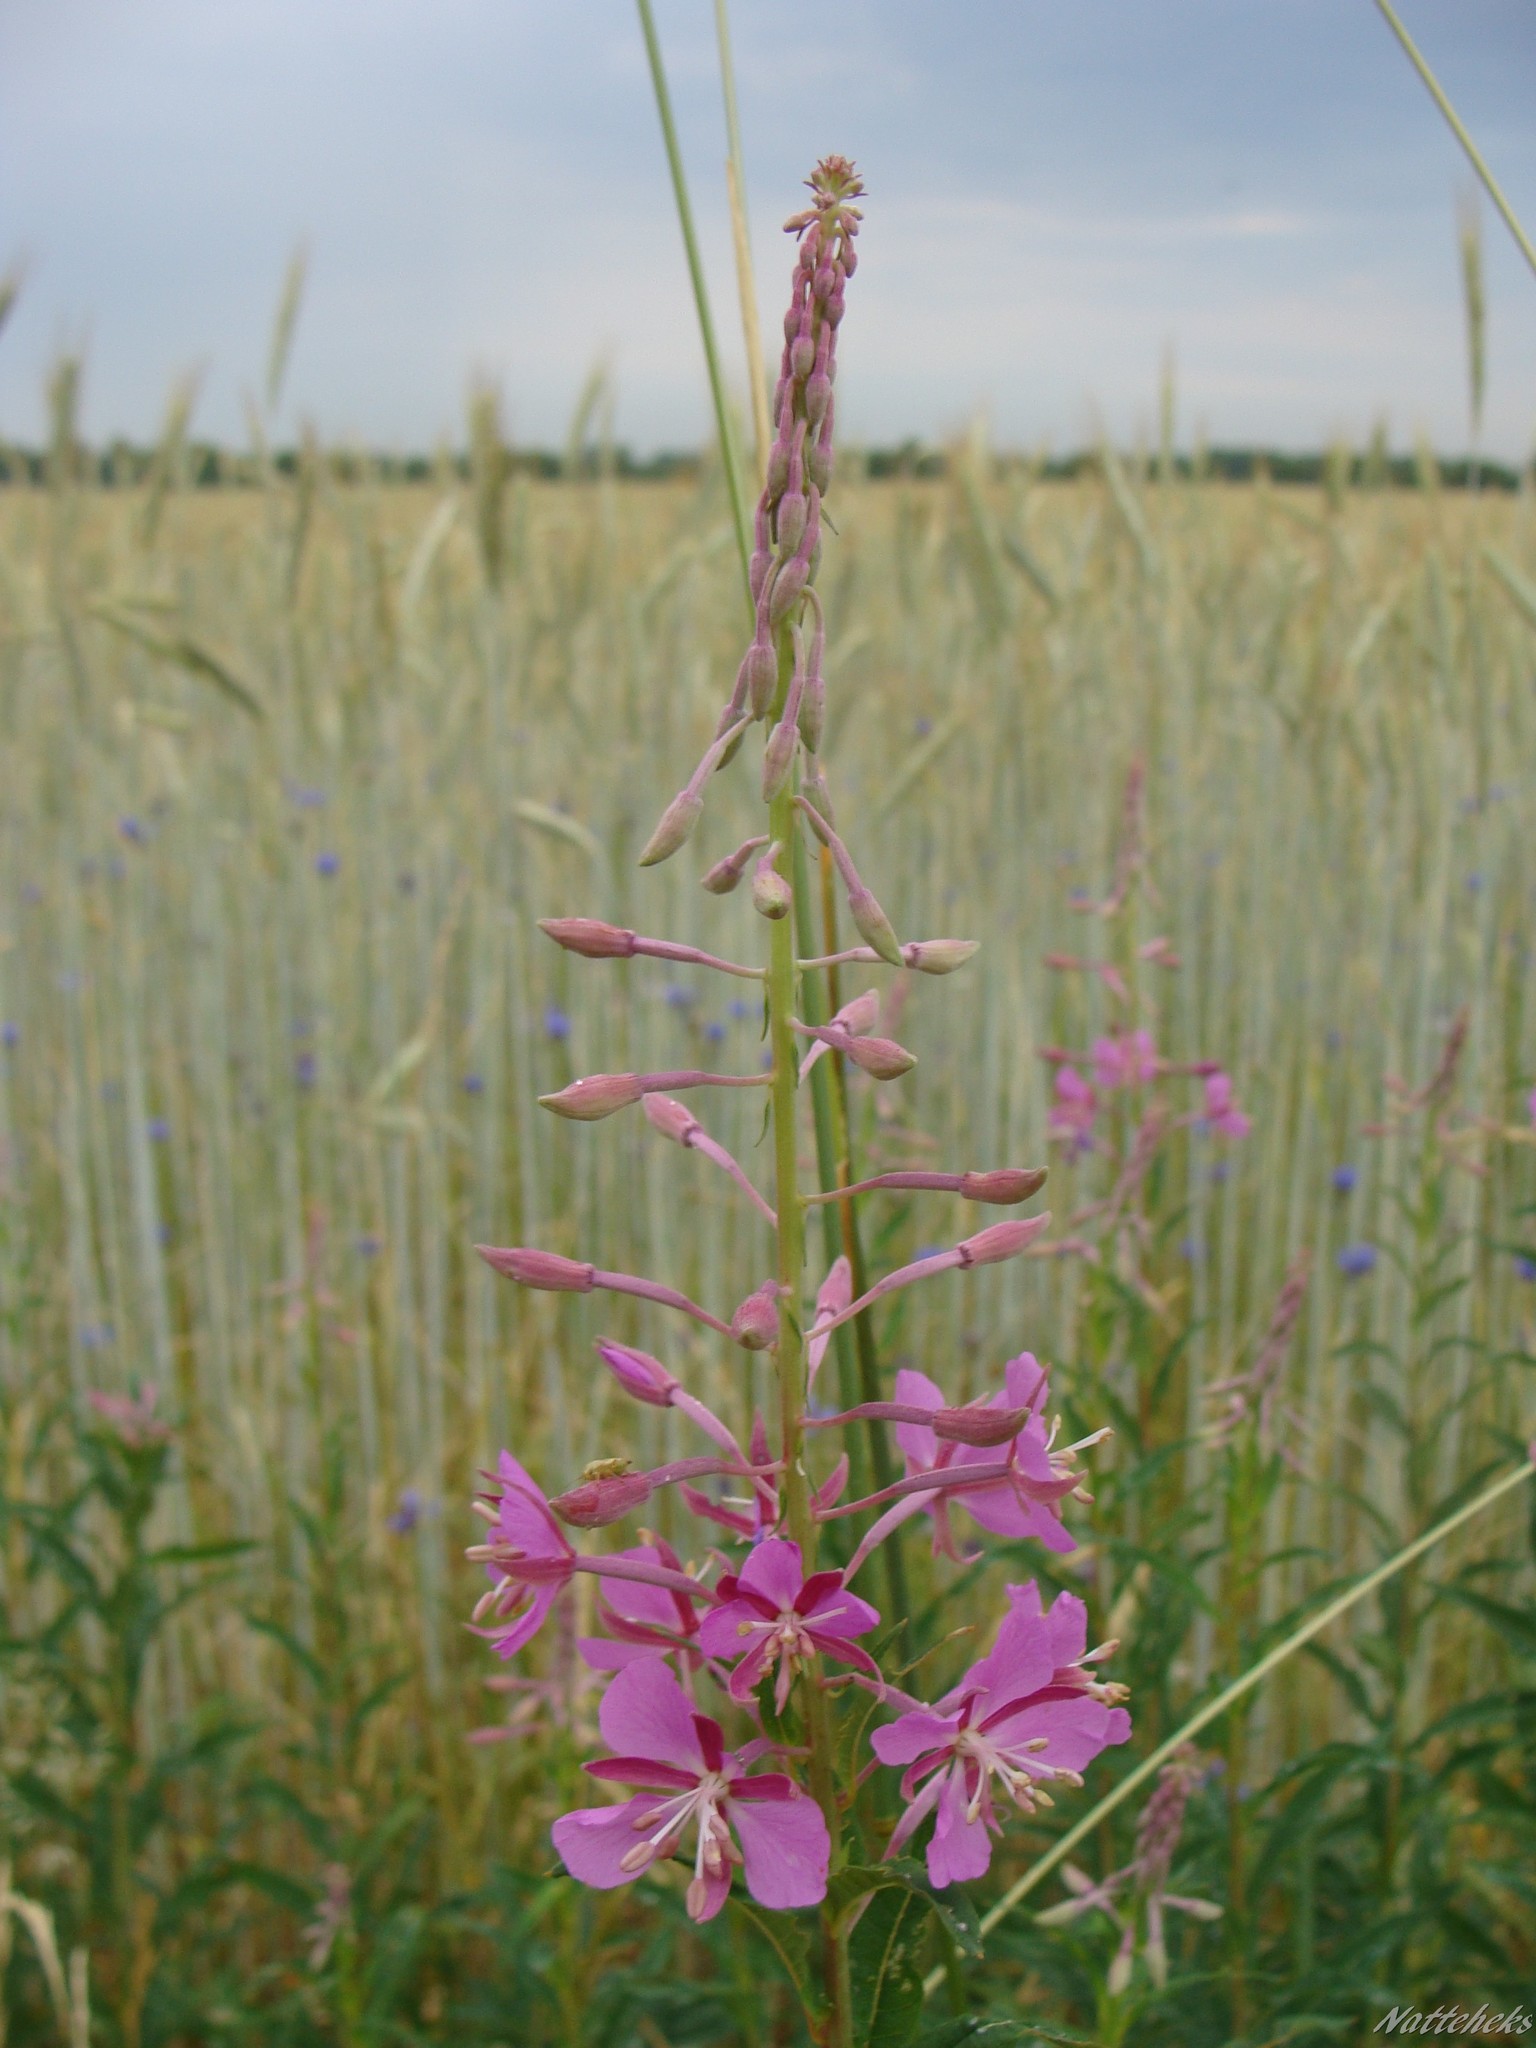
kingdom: Plantae
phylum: Tracheophyta
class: Magnoliopsida
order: Myrtales
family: Onagraceae
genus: Chamaenerion
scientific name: Chamaenerion angustifolium
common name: Fireweed
